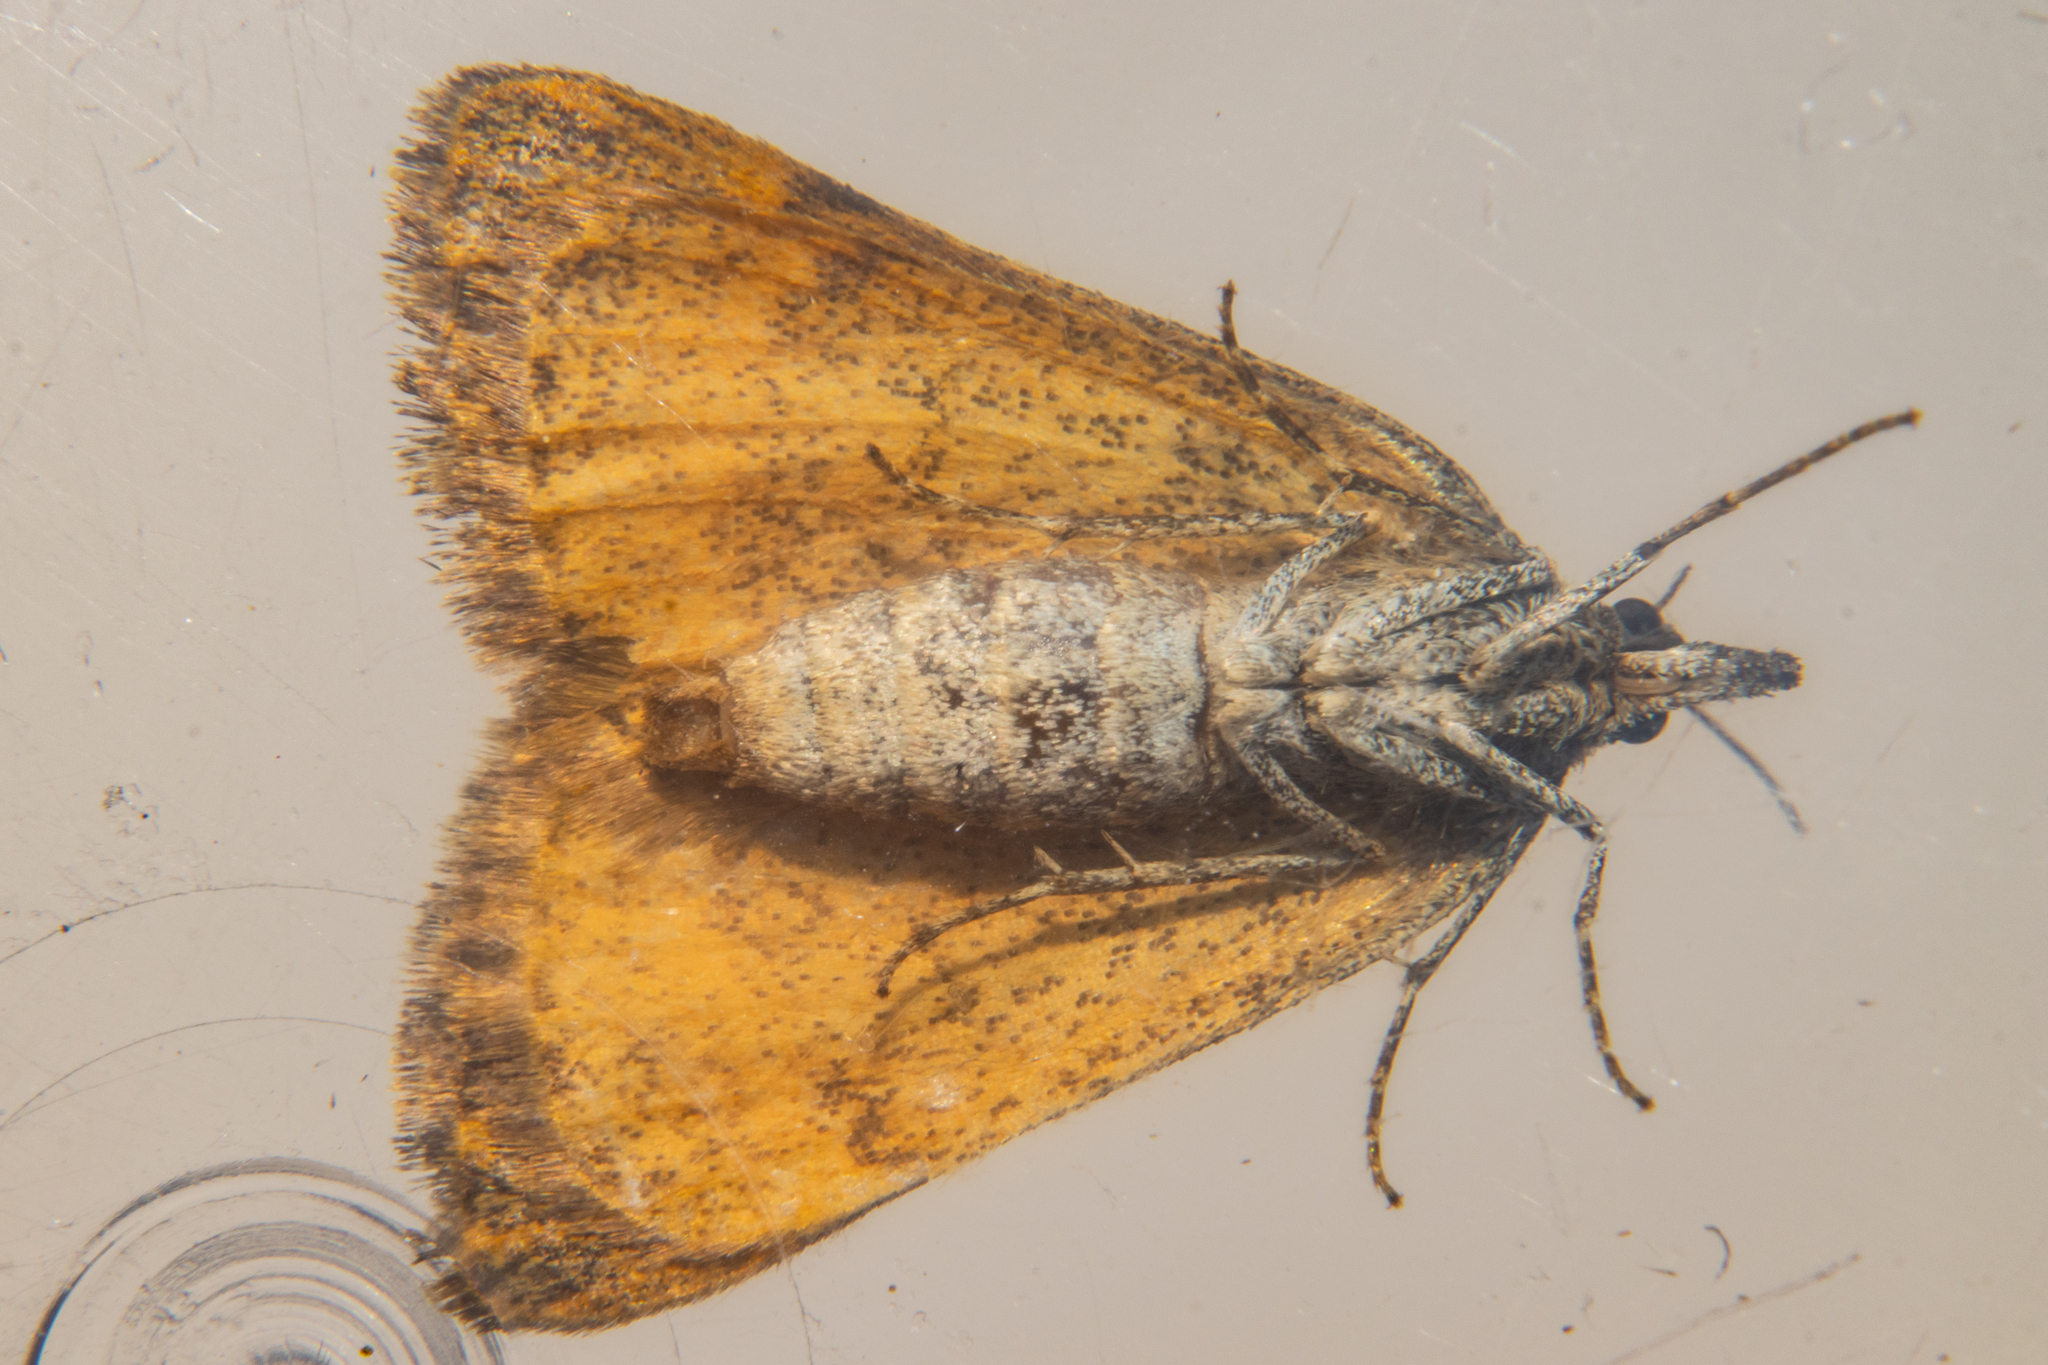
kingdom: Animalia
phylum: Arthropoda
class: Insecta
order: Lepidoptera
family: Geometridae
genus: Dichromodes
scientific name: Dichromodes simulans
